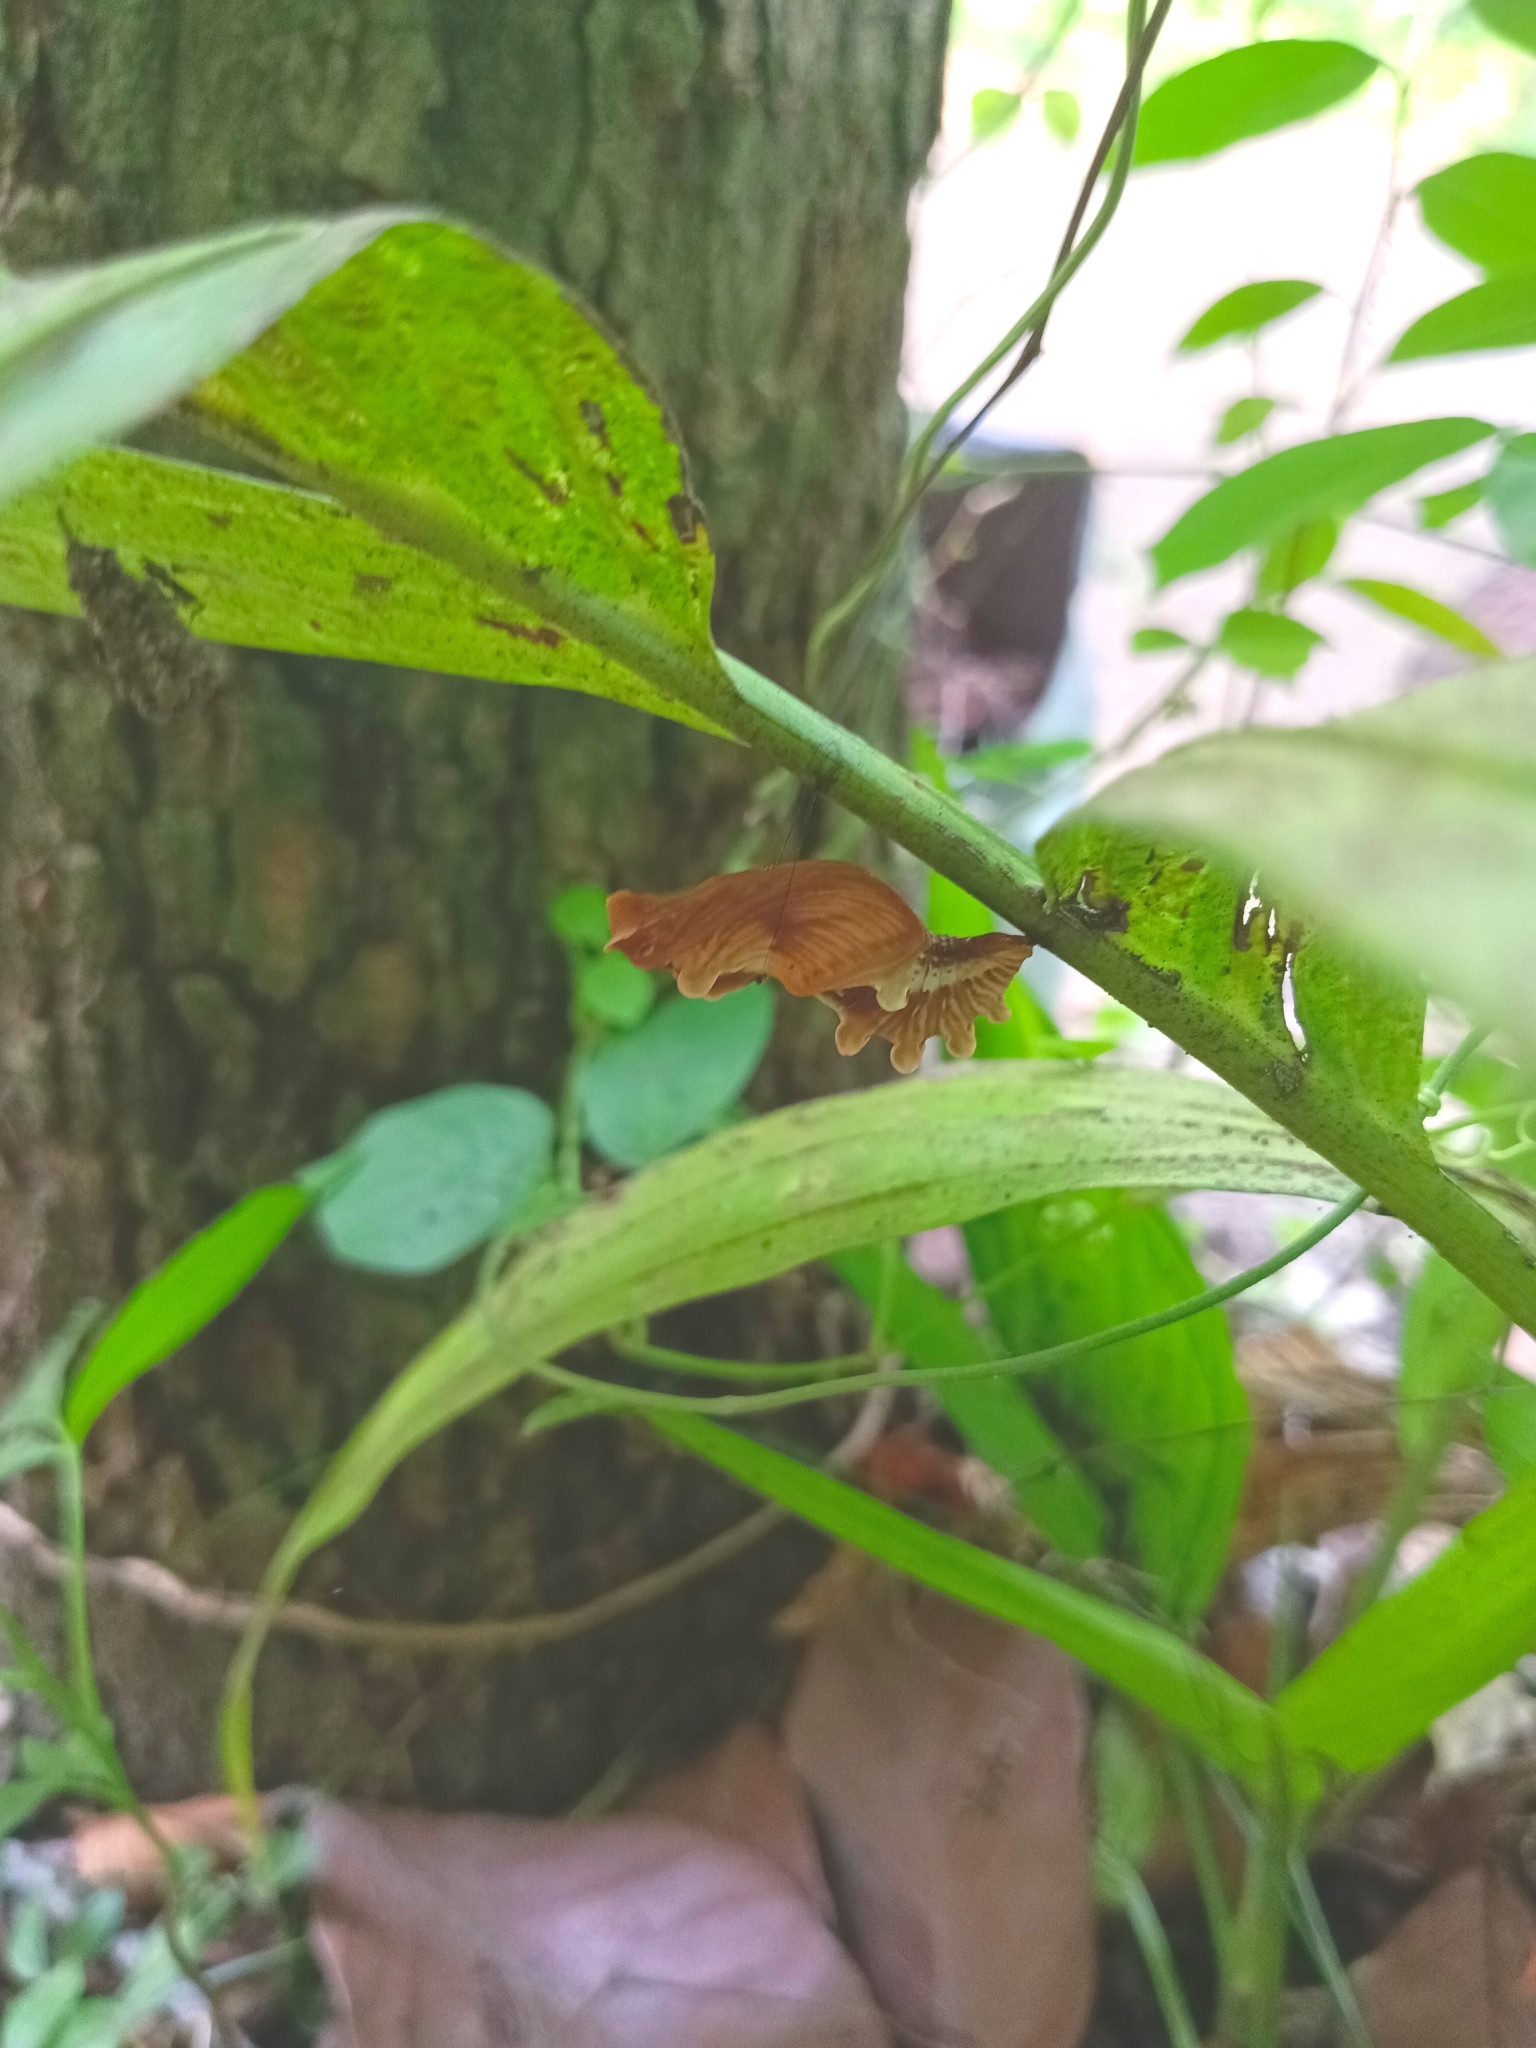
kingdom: Animalia
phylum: Arthropoda
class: Insecta
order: Lepidoptera
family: Papilionidae
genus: Pachliopta
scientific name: Pachliopta aristolochiae
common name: Common rose
